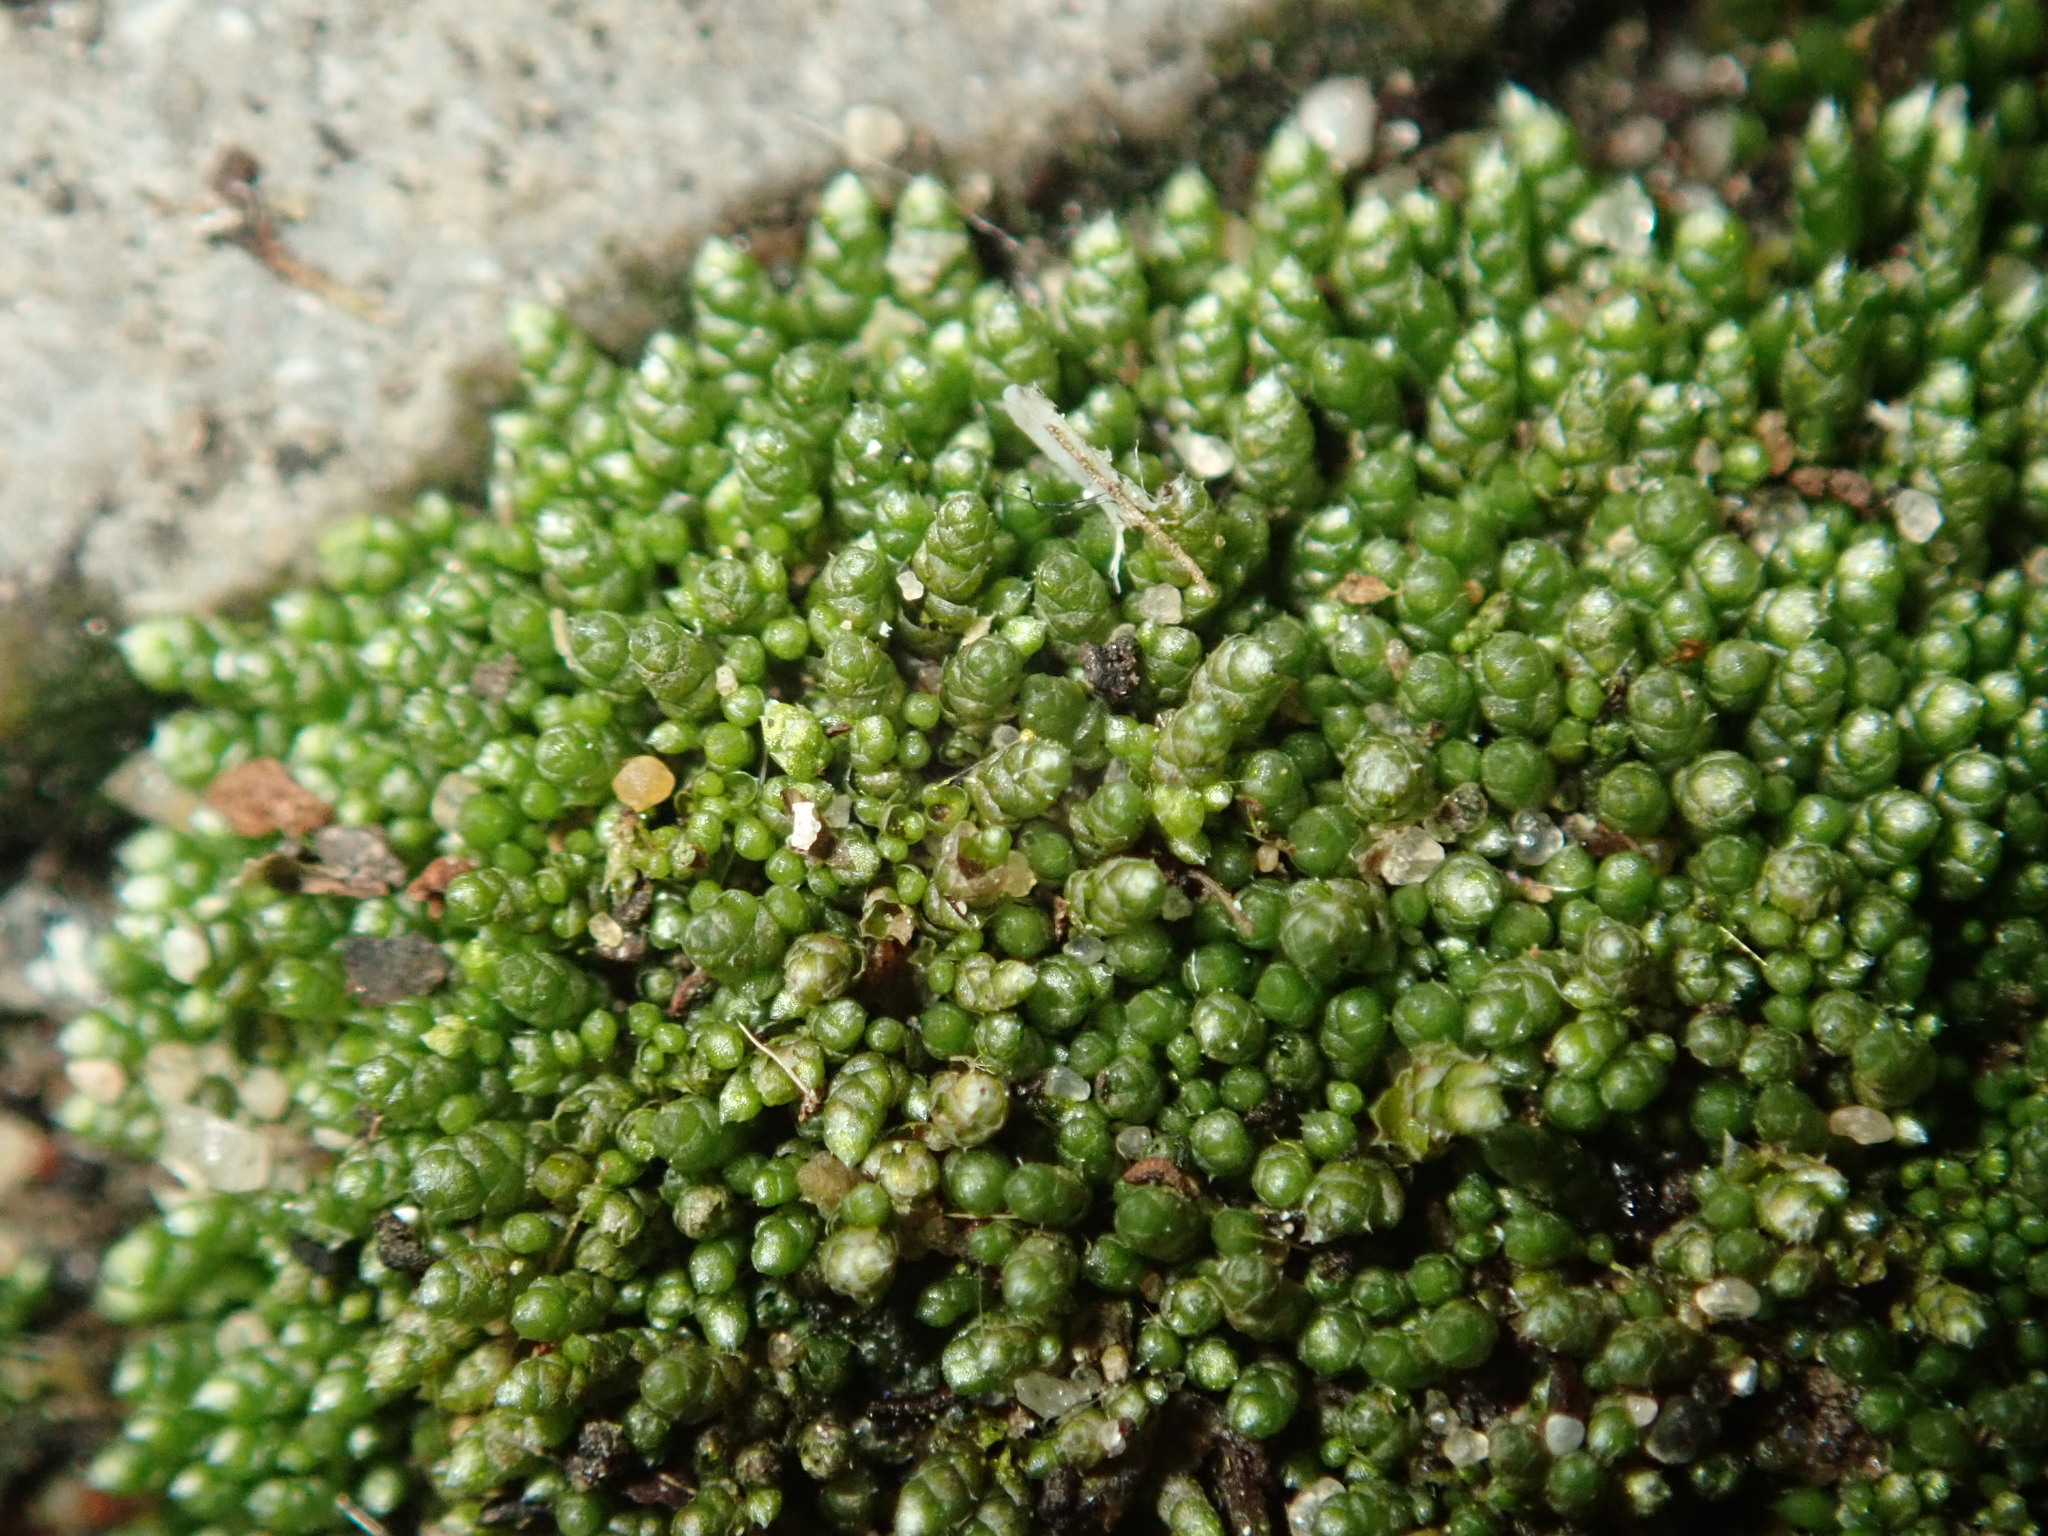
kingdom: Plantae
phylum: Bryophyta
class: Bryopsida
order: Bryales
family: Bryaceae
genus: Bryum
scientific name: Bryum argenteum
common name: Silver-moss
